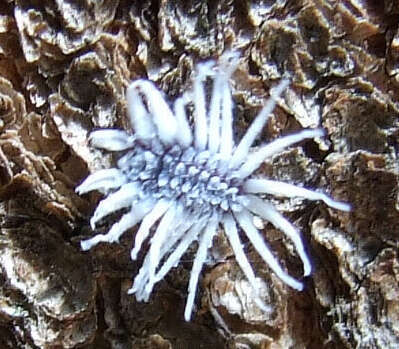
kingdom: Animalia
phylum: Arthropoda
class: Insecta
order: Coleoptera
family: Coccinellidae
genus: Cryptolaemus
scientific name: Cryptolaemus montrouzieri
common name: Mealybug destroyer
